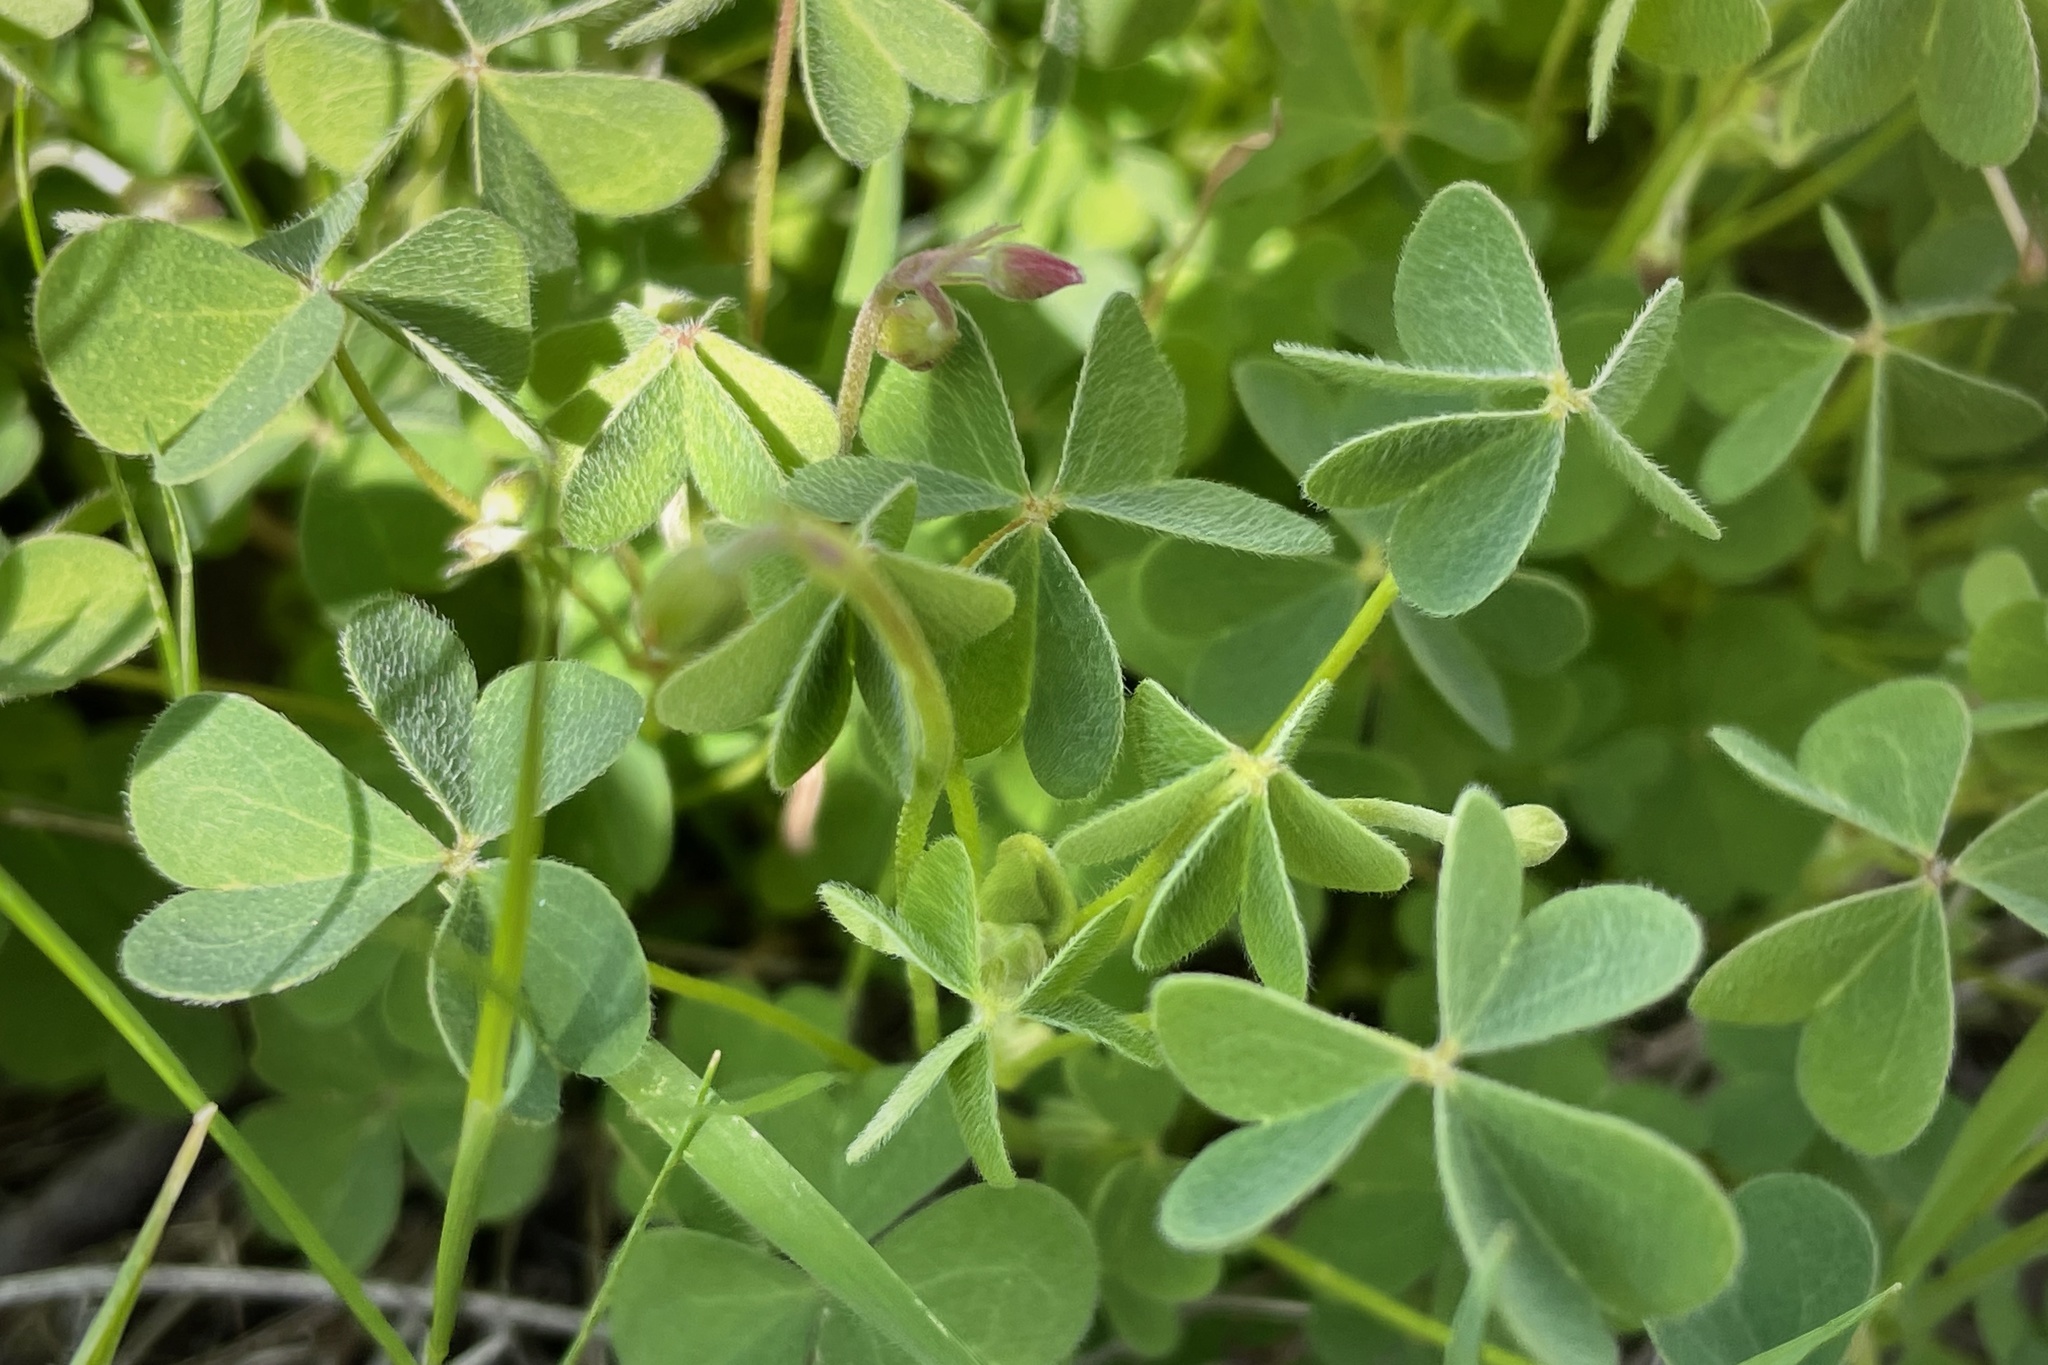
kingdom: Plantae
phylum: Tracheophyta
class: Magnoliopsida
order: Oxalidales
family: Oxalidaceae
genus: Oxalis
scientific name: Oxalis californica
